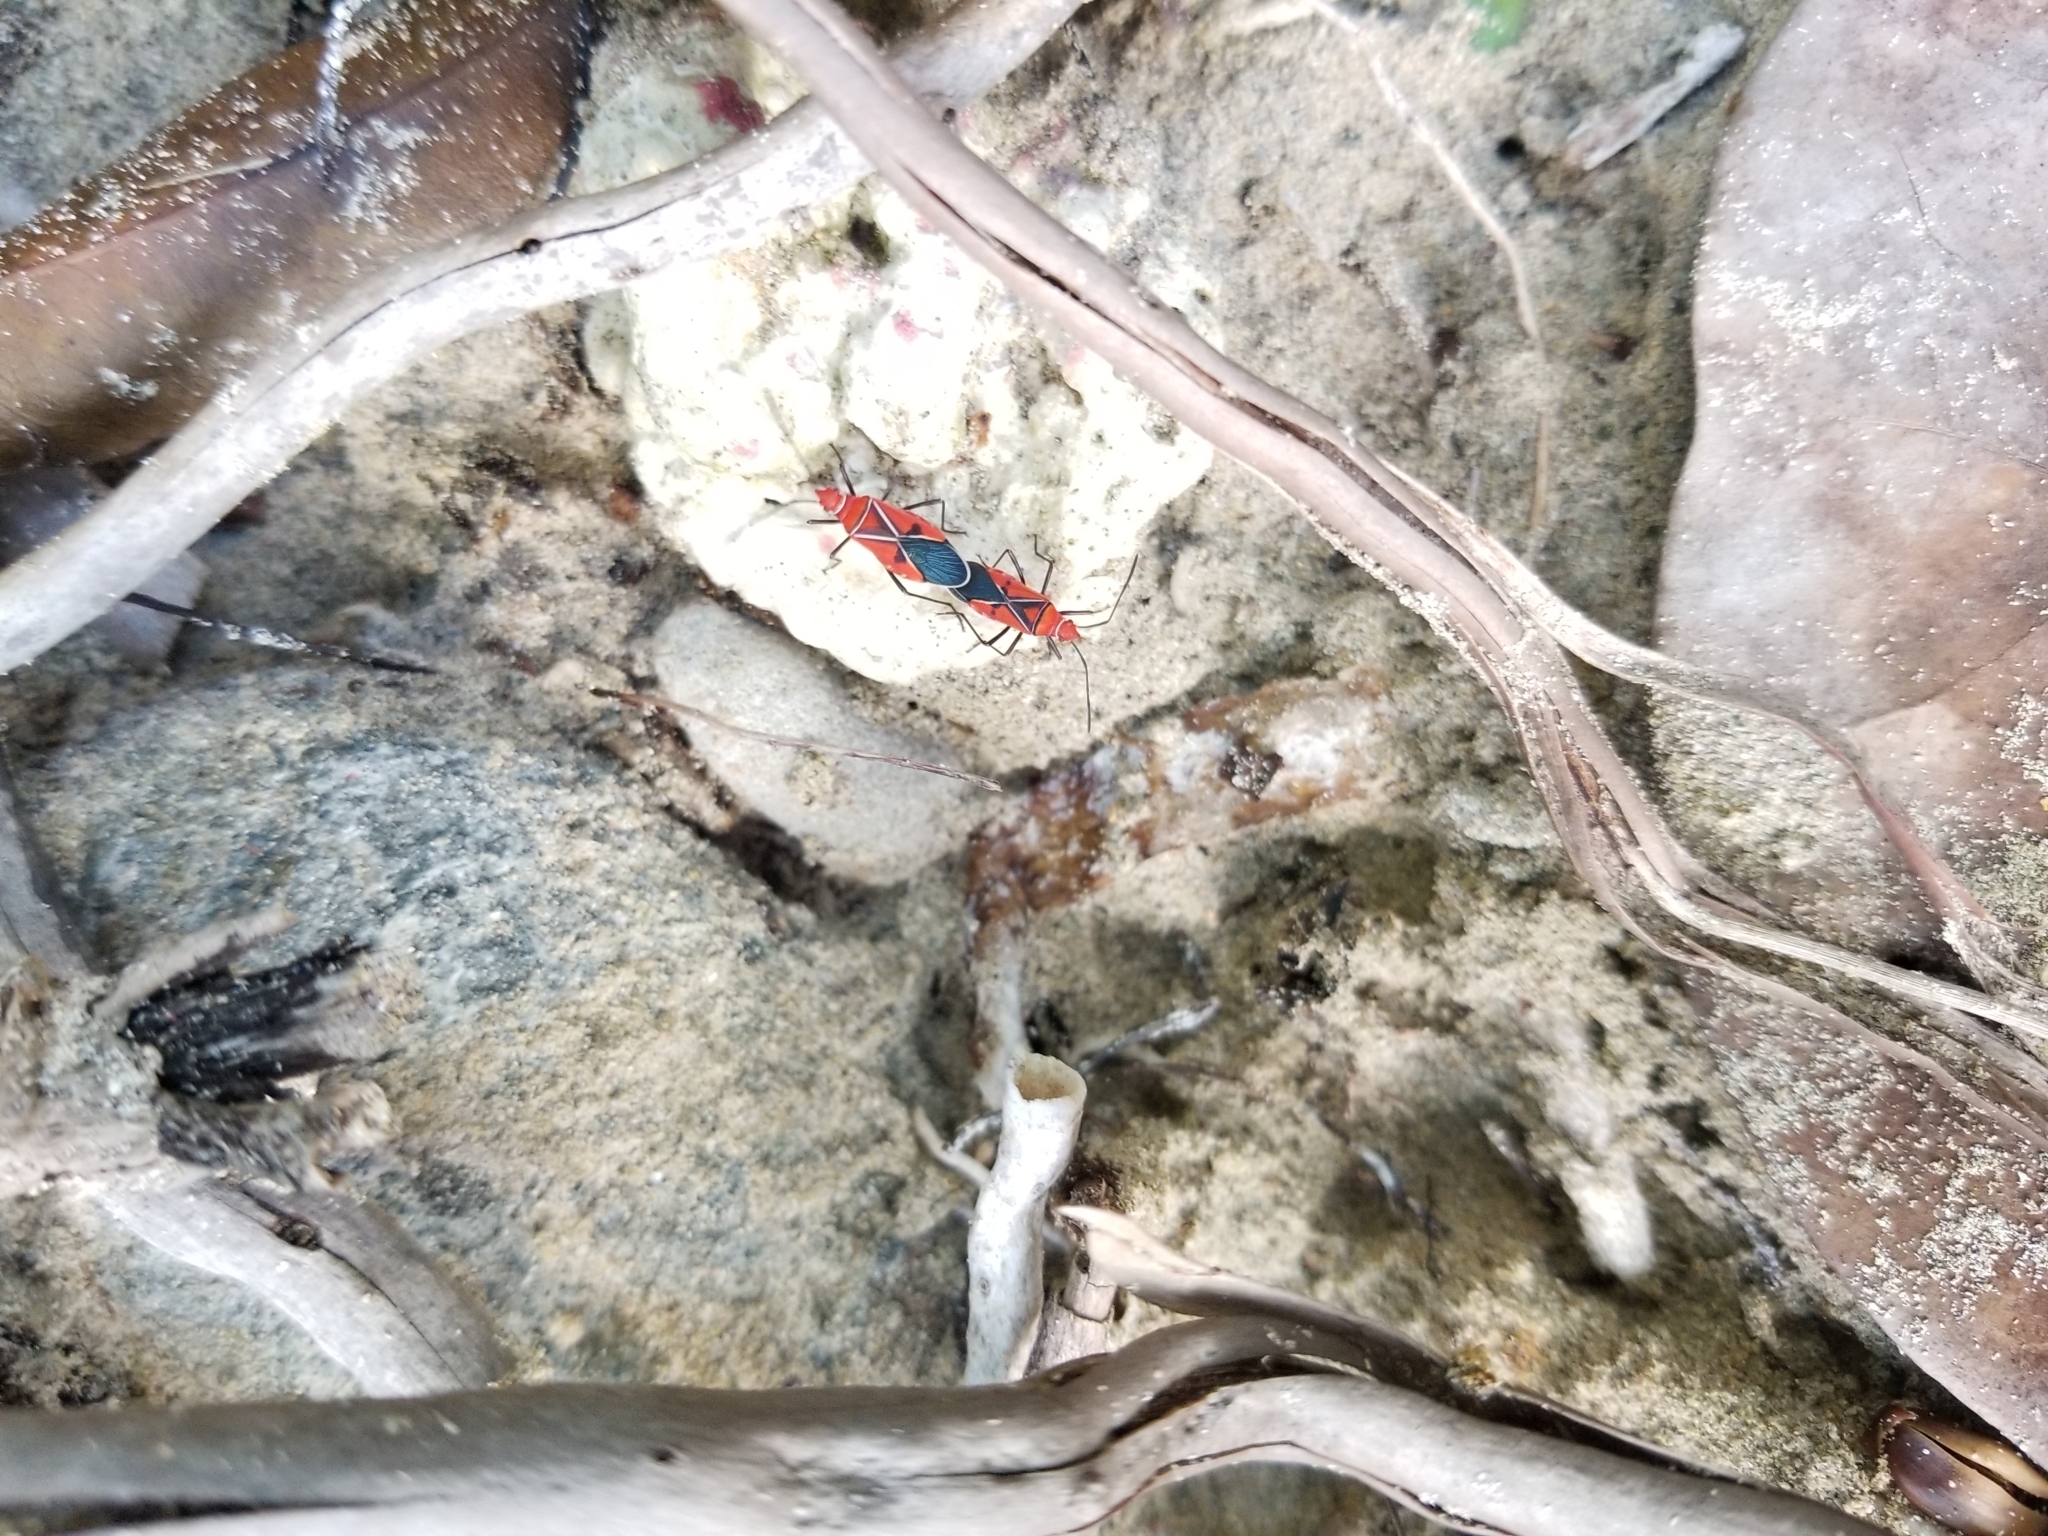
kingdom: Animalia
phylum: Arthropoda
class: Insecta
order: Hemiptera
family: Pyrrhocoridae
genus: Dysdercus
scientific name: Dysdercus andreae
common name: St. andrew's cotton stainer
